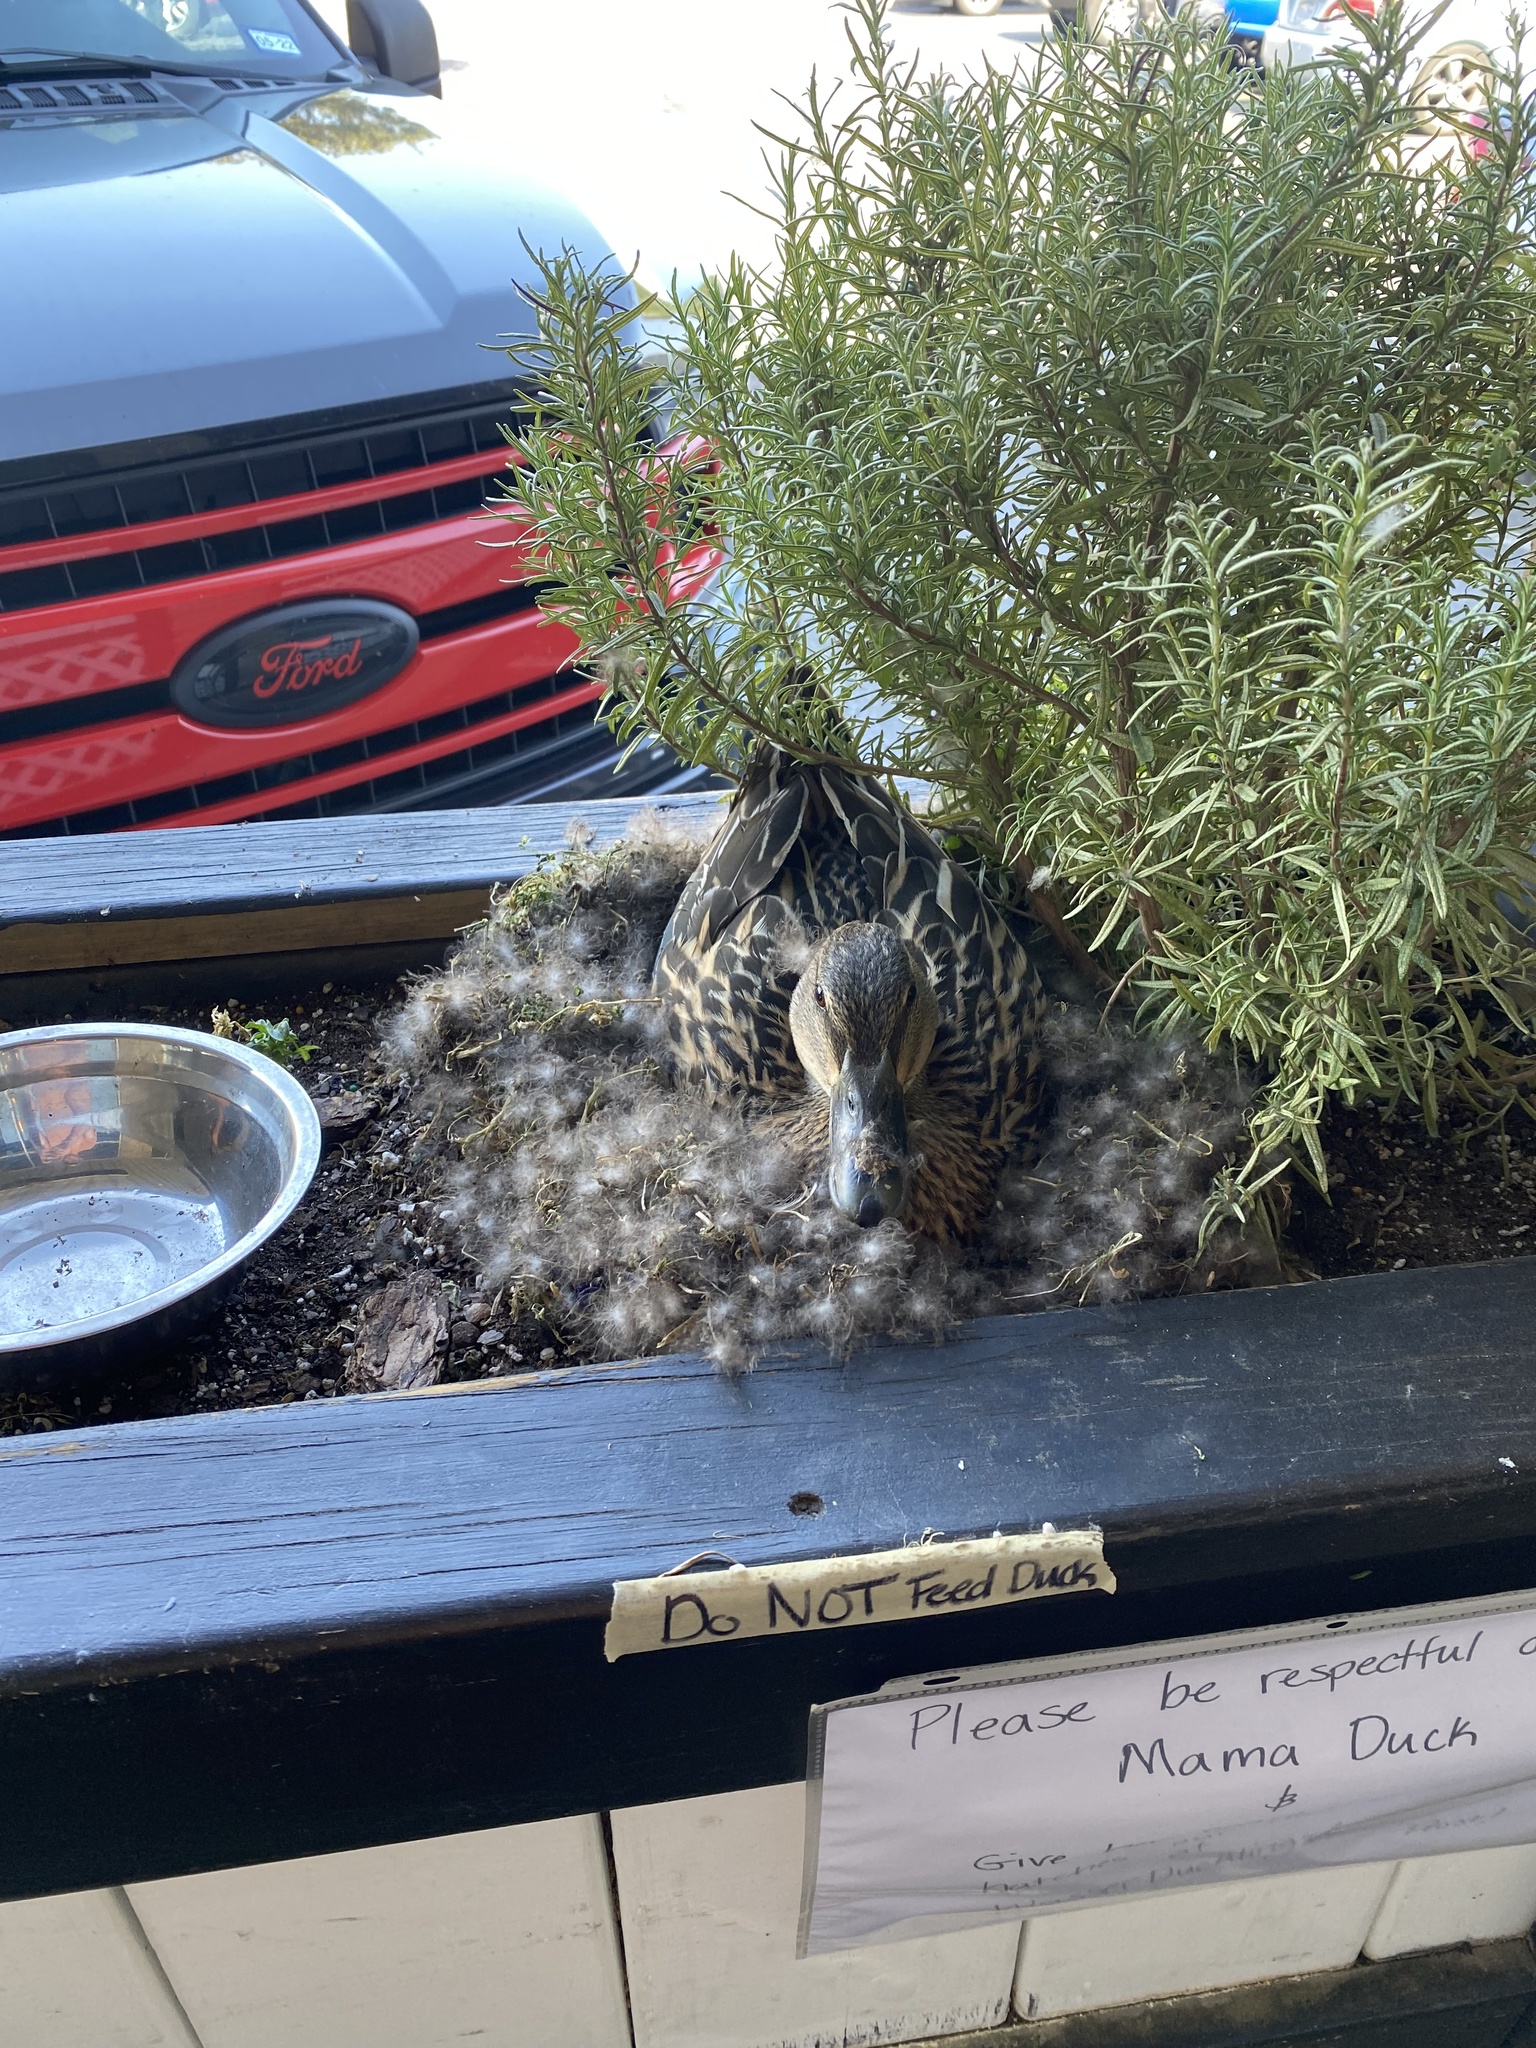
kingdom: Animalia
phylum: Chordata
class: Aves
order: Anseriformes
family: Anatidae
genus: Anas
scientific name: Anas platyrhynchos
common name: Mallard
